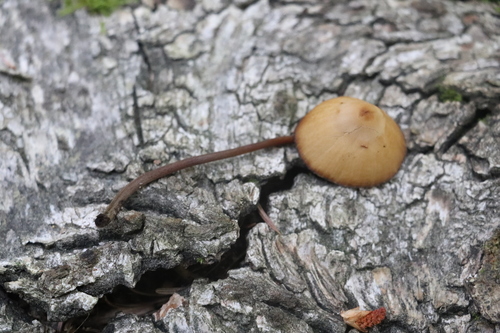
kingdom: Fungi
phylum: Basidiomycota
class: Agaricomycetes
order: Agaricales
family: Bolbitiaceae
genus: Conocybe
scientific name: Conocybe semiglobata
